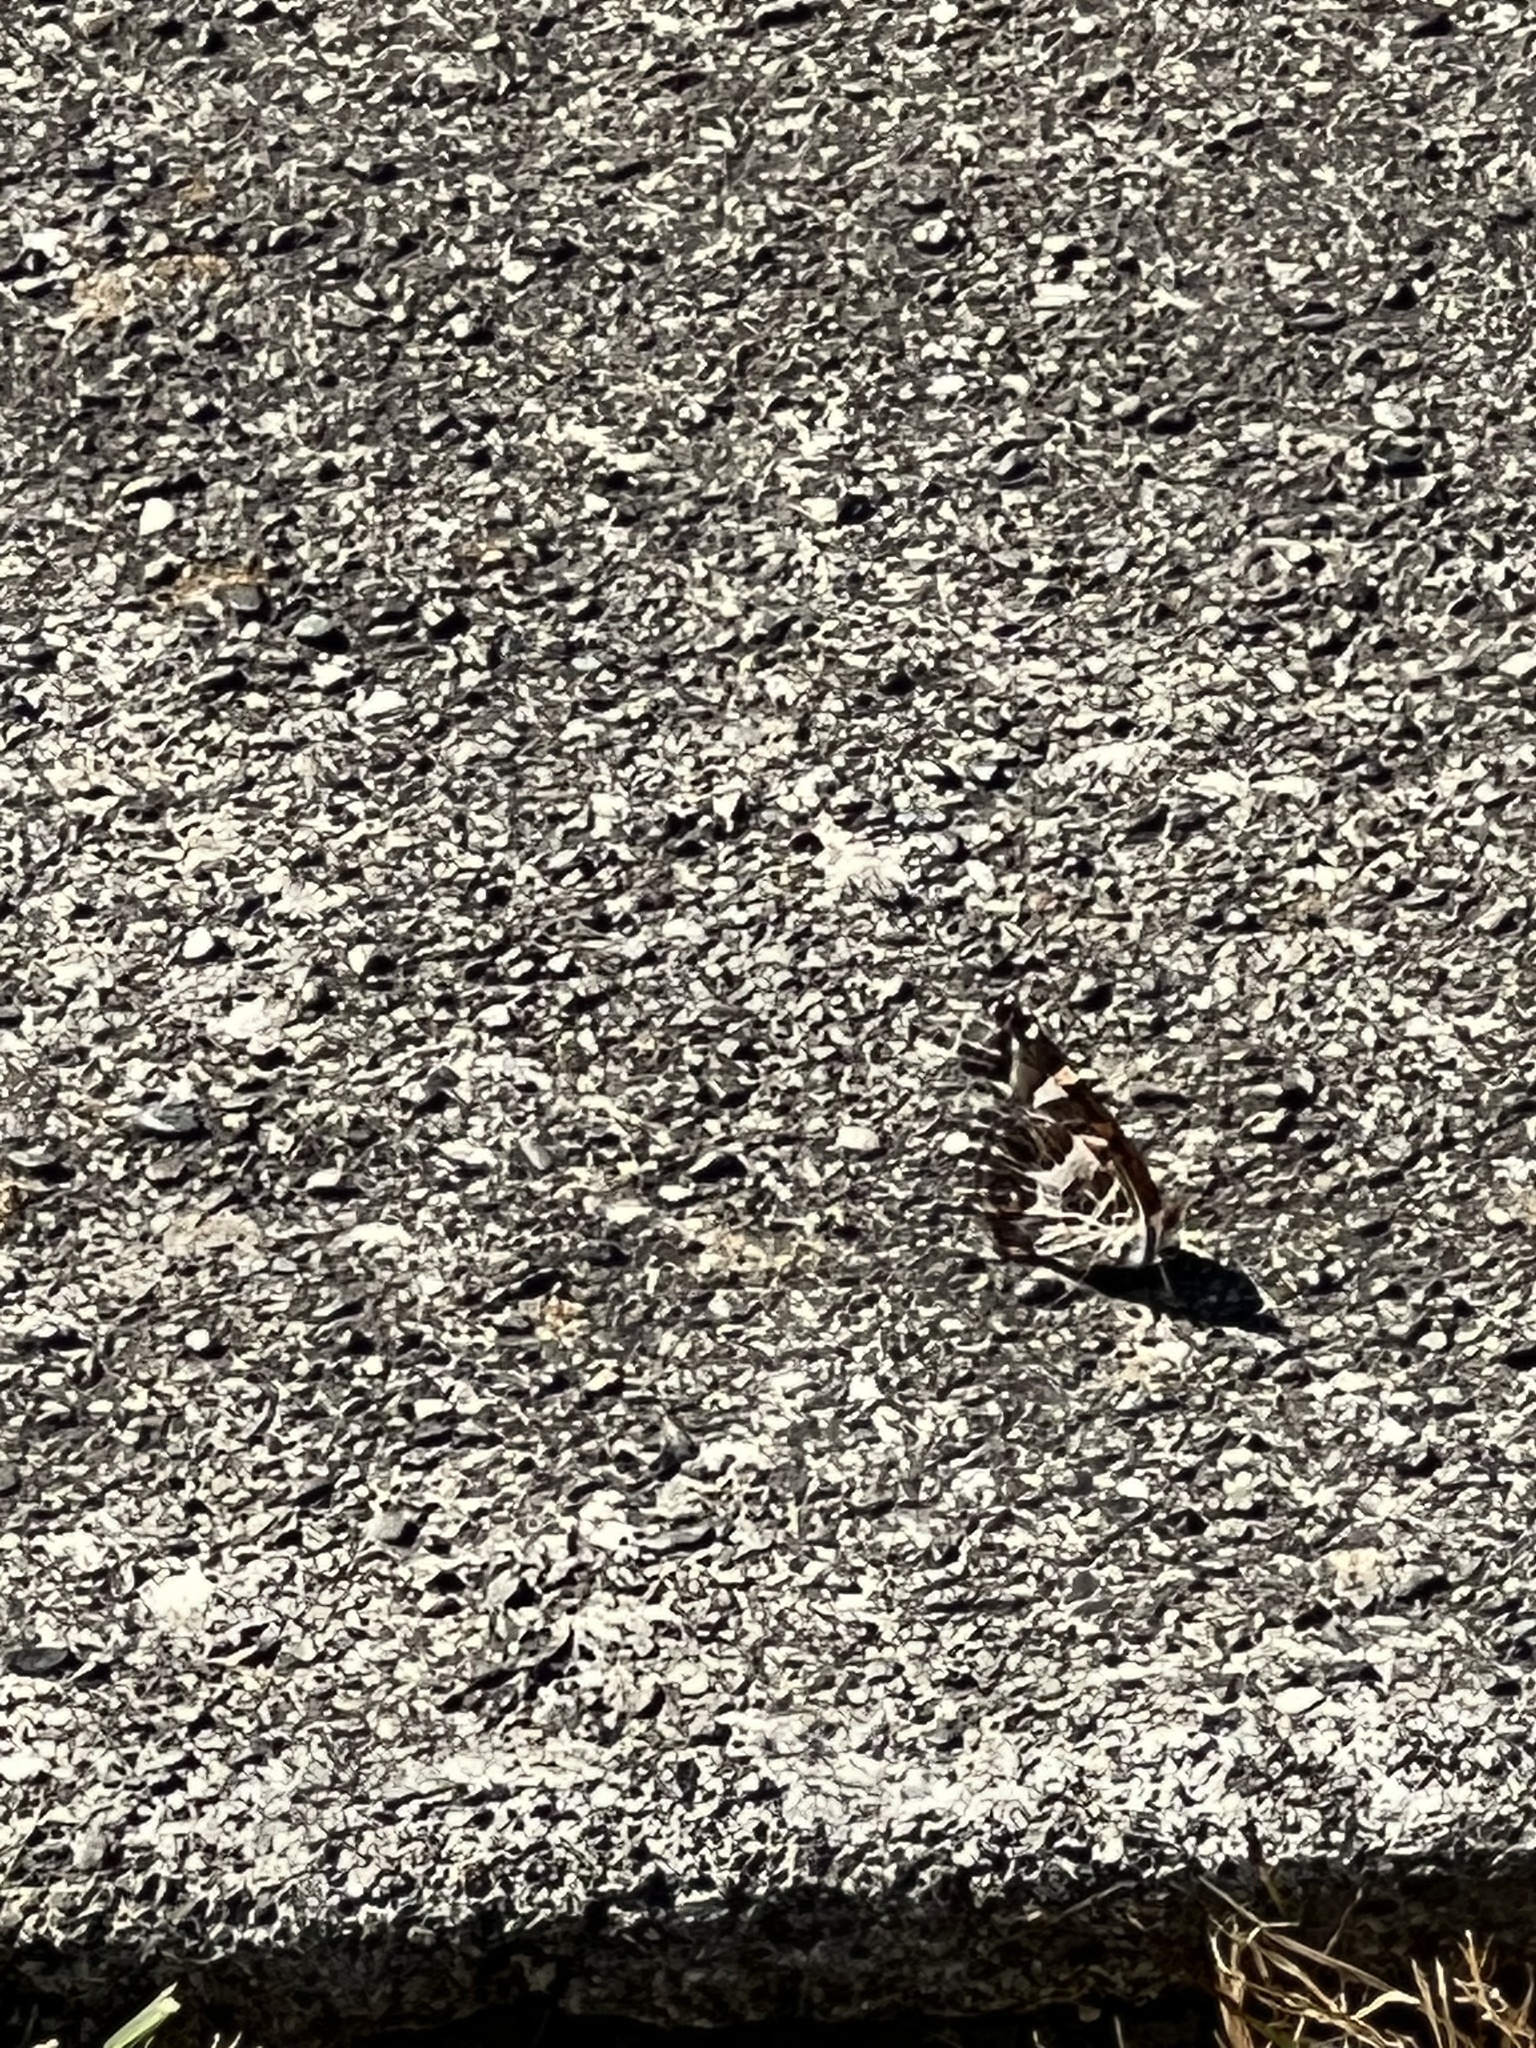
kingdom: Animalia
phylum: Arthropoda
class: Insecta
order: Lepidoptera
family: Nymphalidae
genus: Vanessa
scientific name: Vanessa virginiensis
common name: American lady
